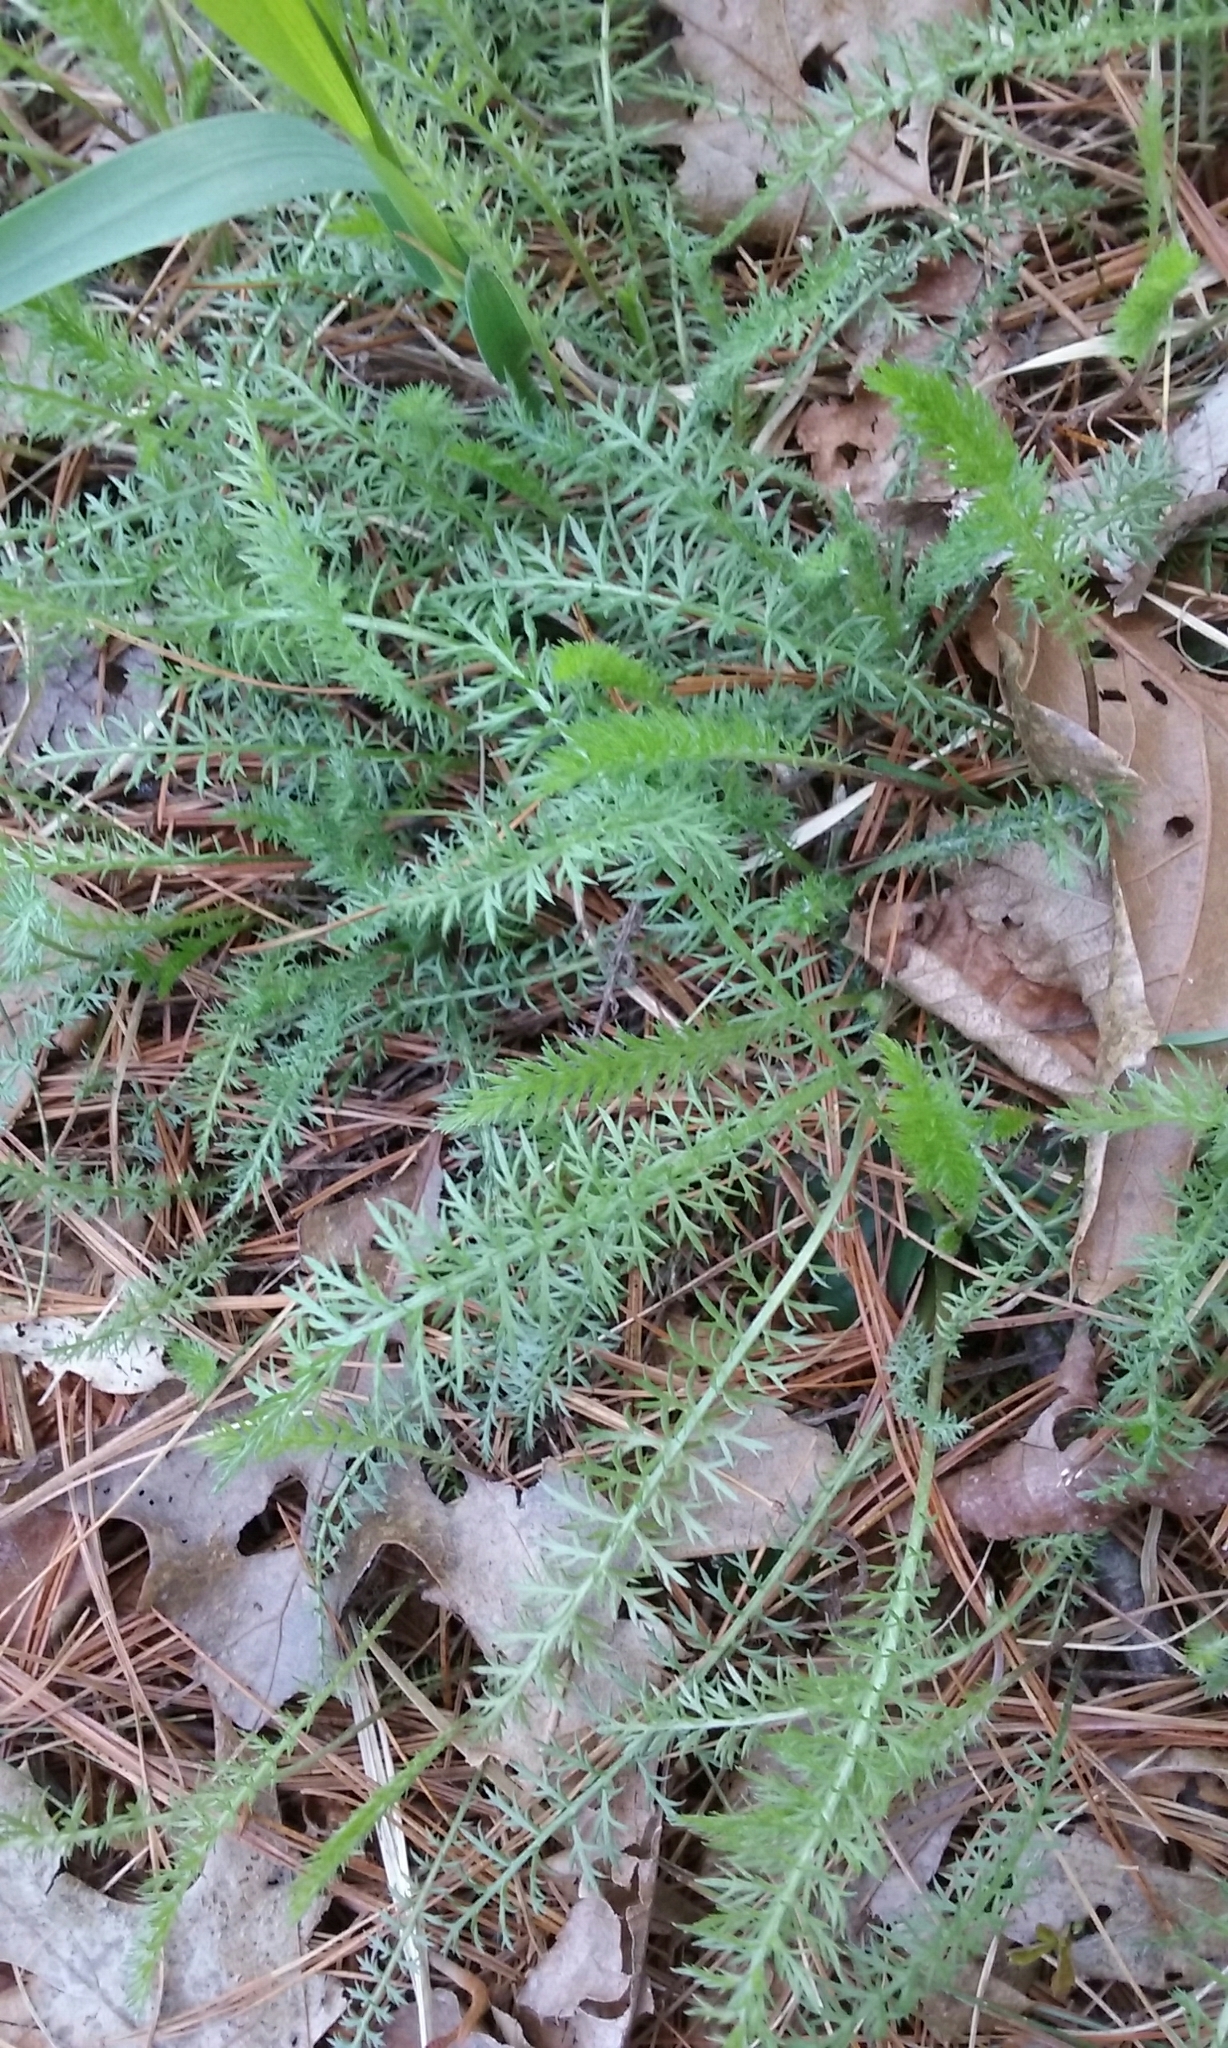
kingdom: Plantae
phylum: Tracheophyta
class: Magnoliopsida
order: Asterales
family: Asteraceae
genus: Achillea
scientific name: Achillea millefolium
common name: Yarrow
